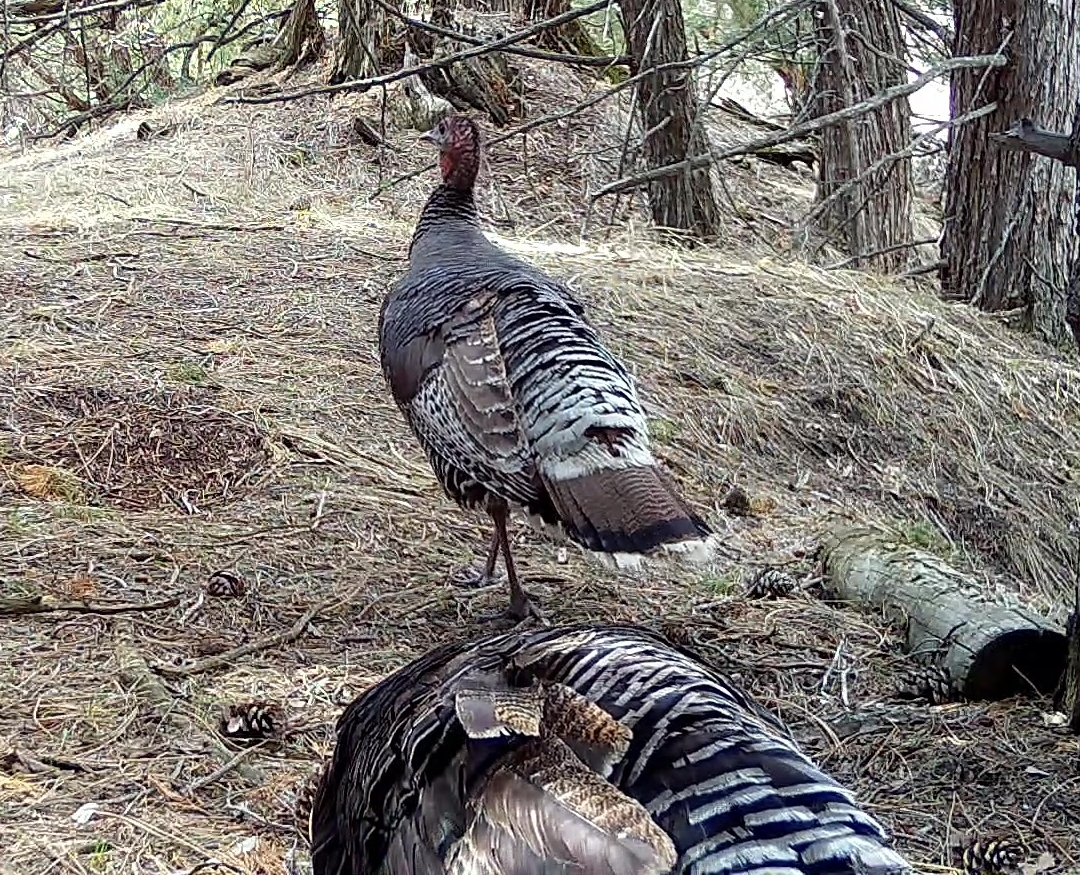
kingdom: Animalia
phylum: Chordata
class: Aves
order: Galliformes
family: Phasianidae
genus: Meleagris
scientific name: Meleagris gallopavo
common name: Wild turkey
